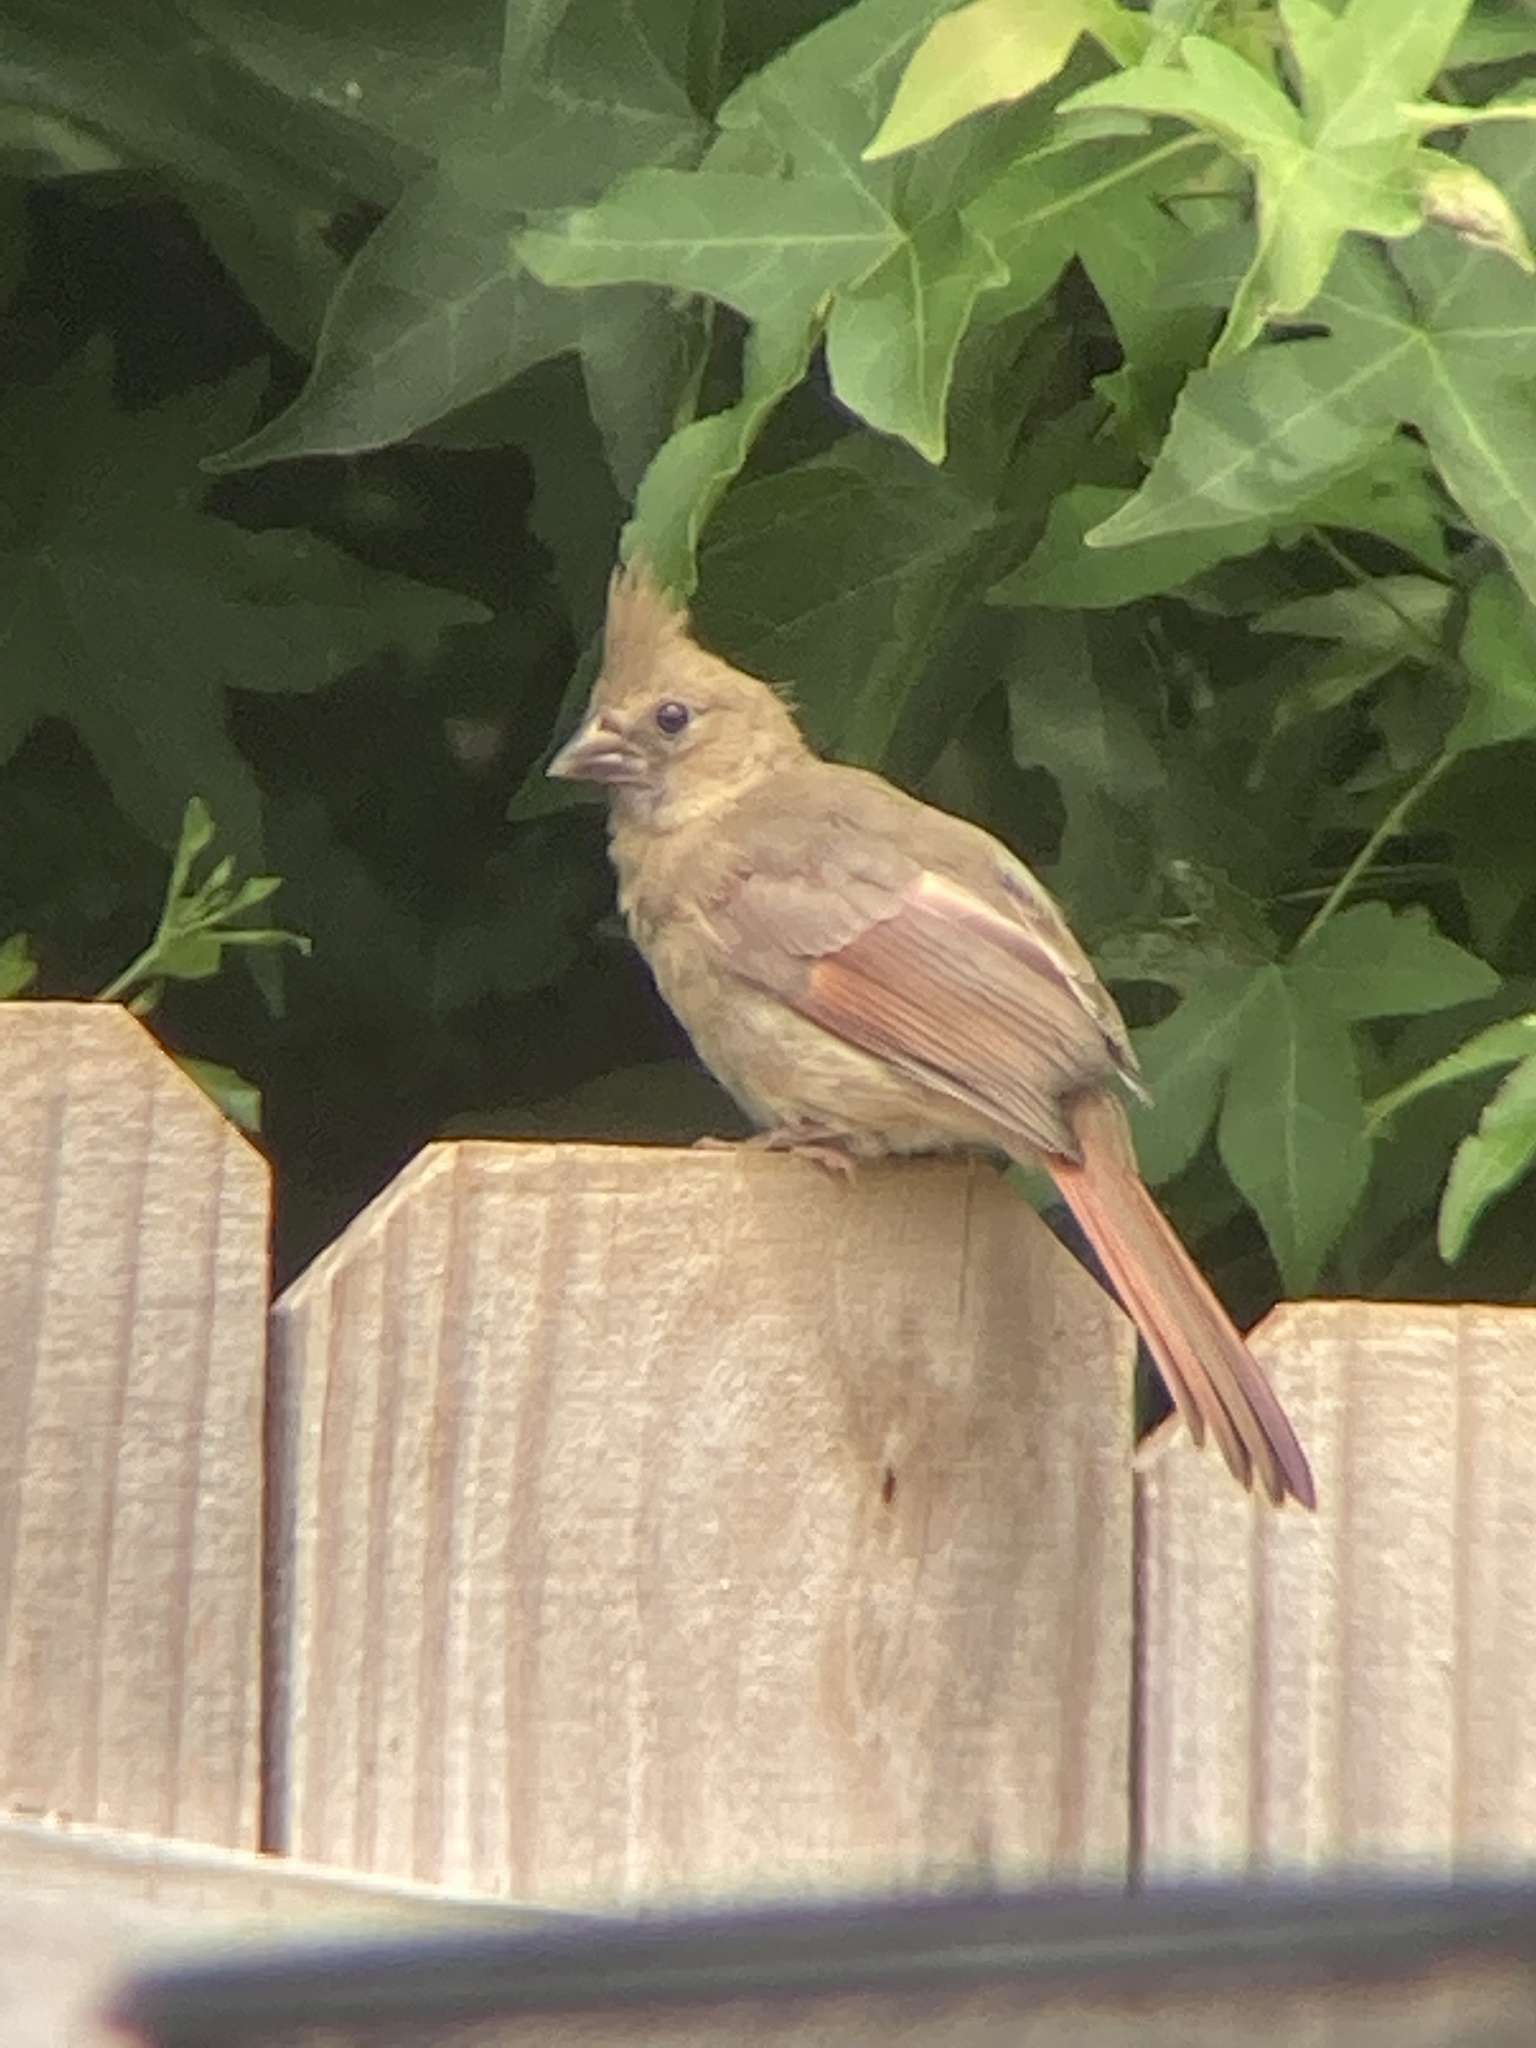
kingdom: Animalia
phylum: Chordata
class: Aves
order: Passeriformes
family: Cardinalidae
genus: Cardinalis
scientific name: Cardinalis cardinalis
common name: Northern cardinal
